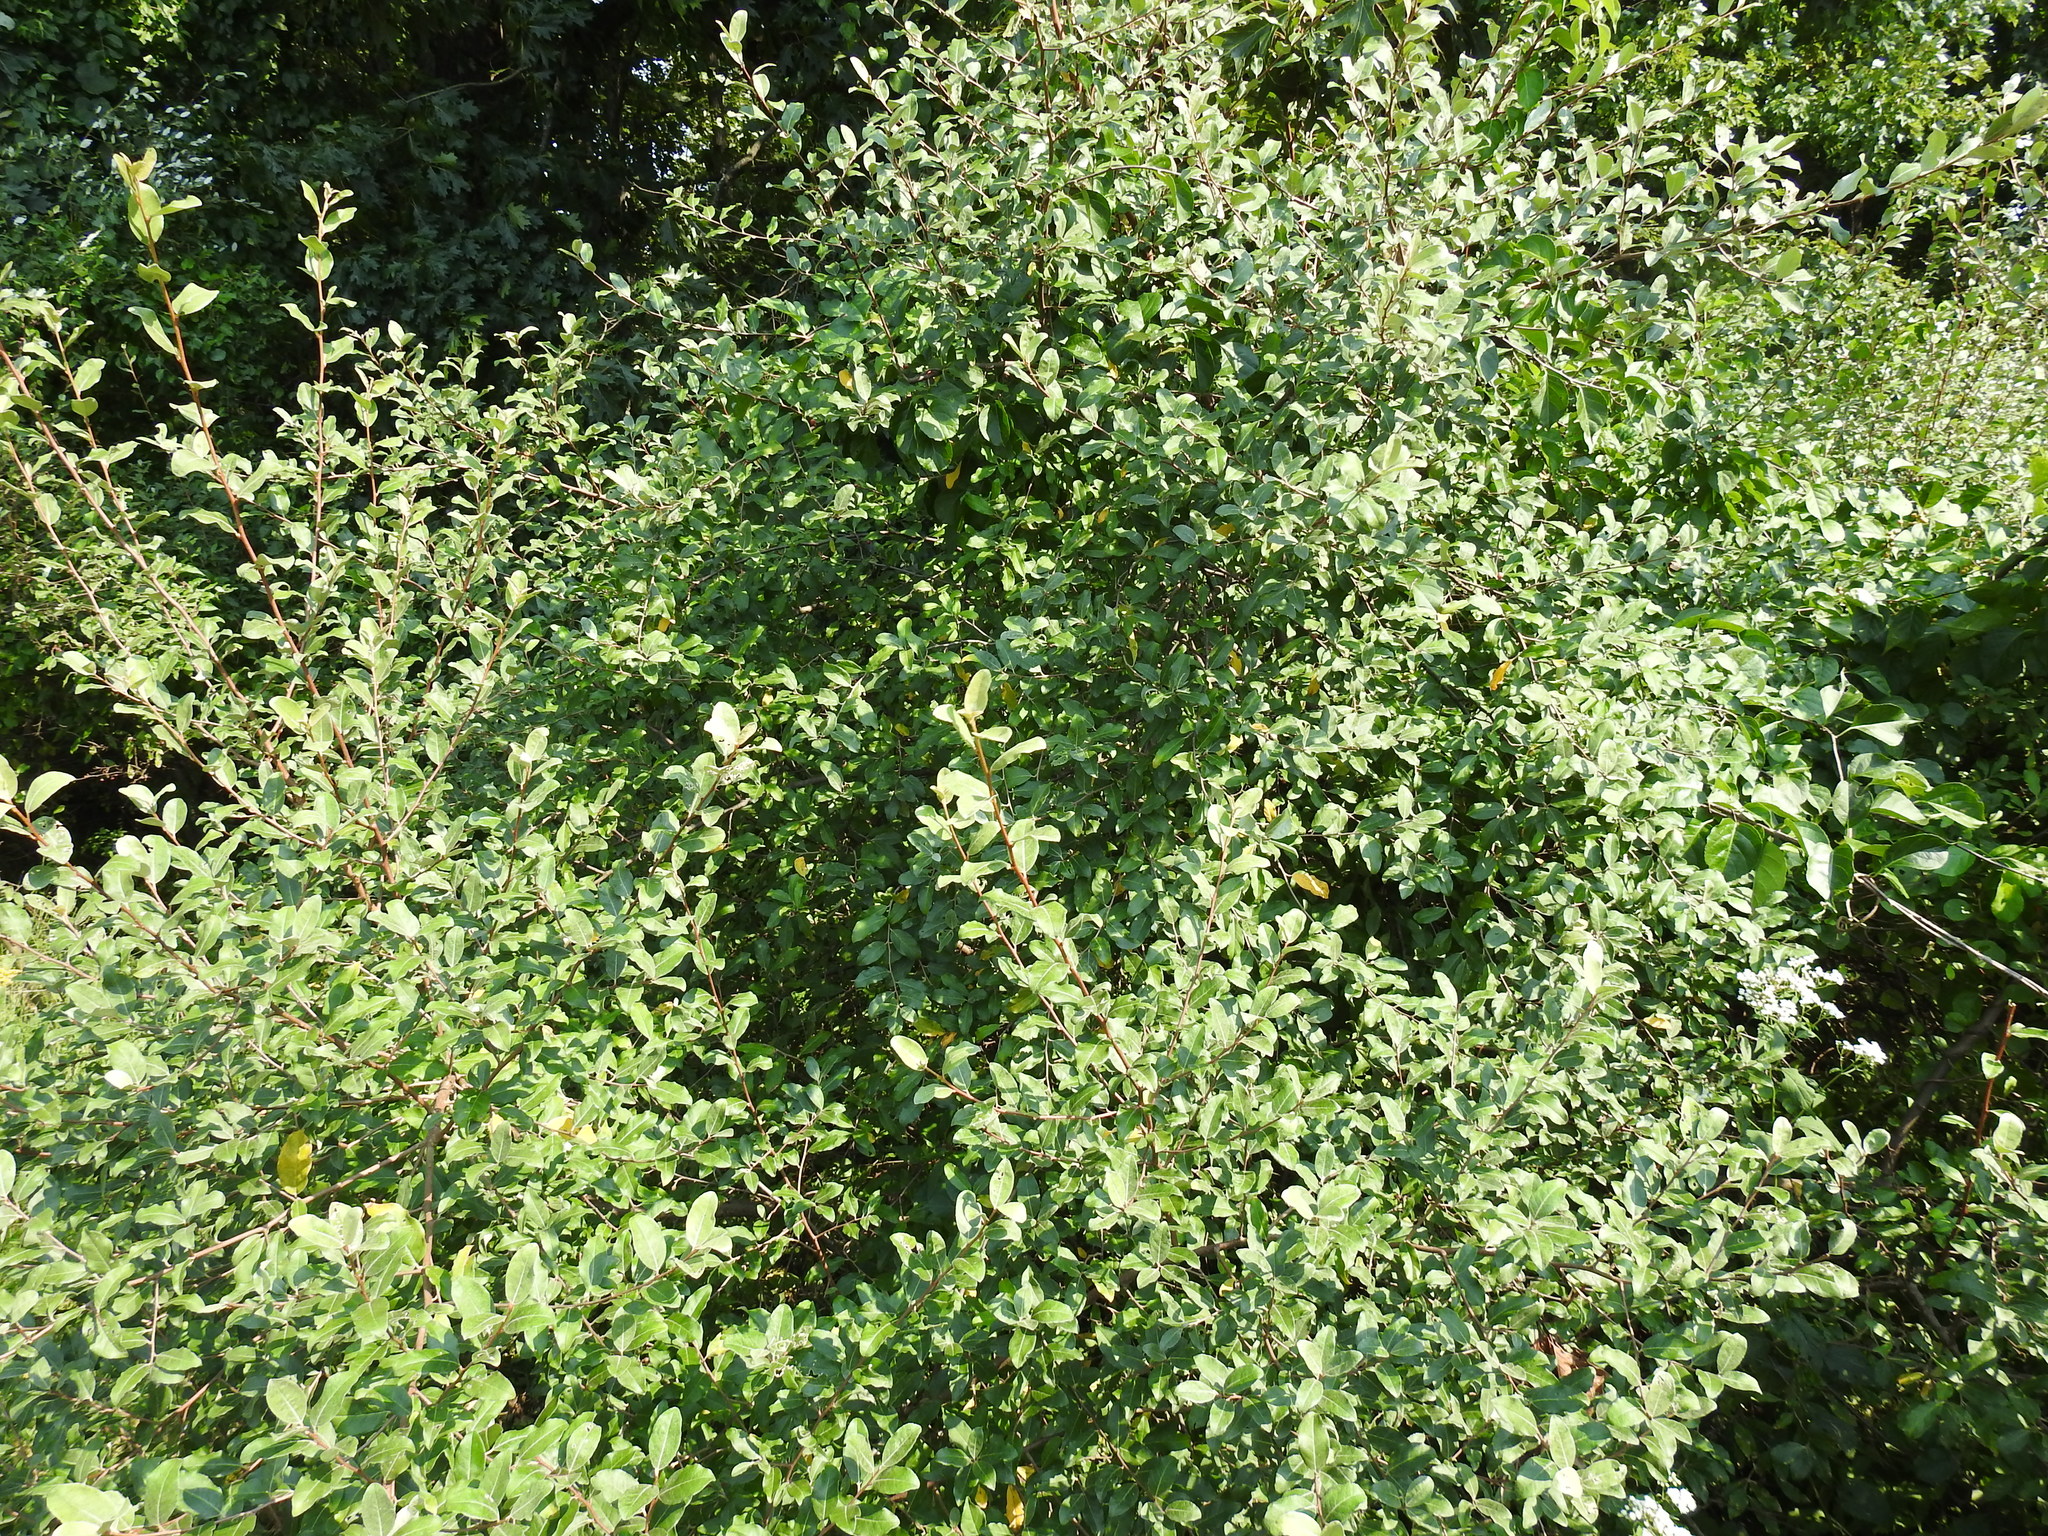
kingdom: Plantae
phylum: Tracheophyta
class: Magnoliopsida
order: Rosales
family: Elaeagnaceae
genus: Elaeagnus
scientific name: Elaeagnus umbellata
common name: Autumn olive
